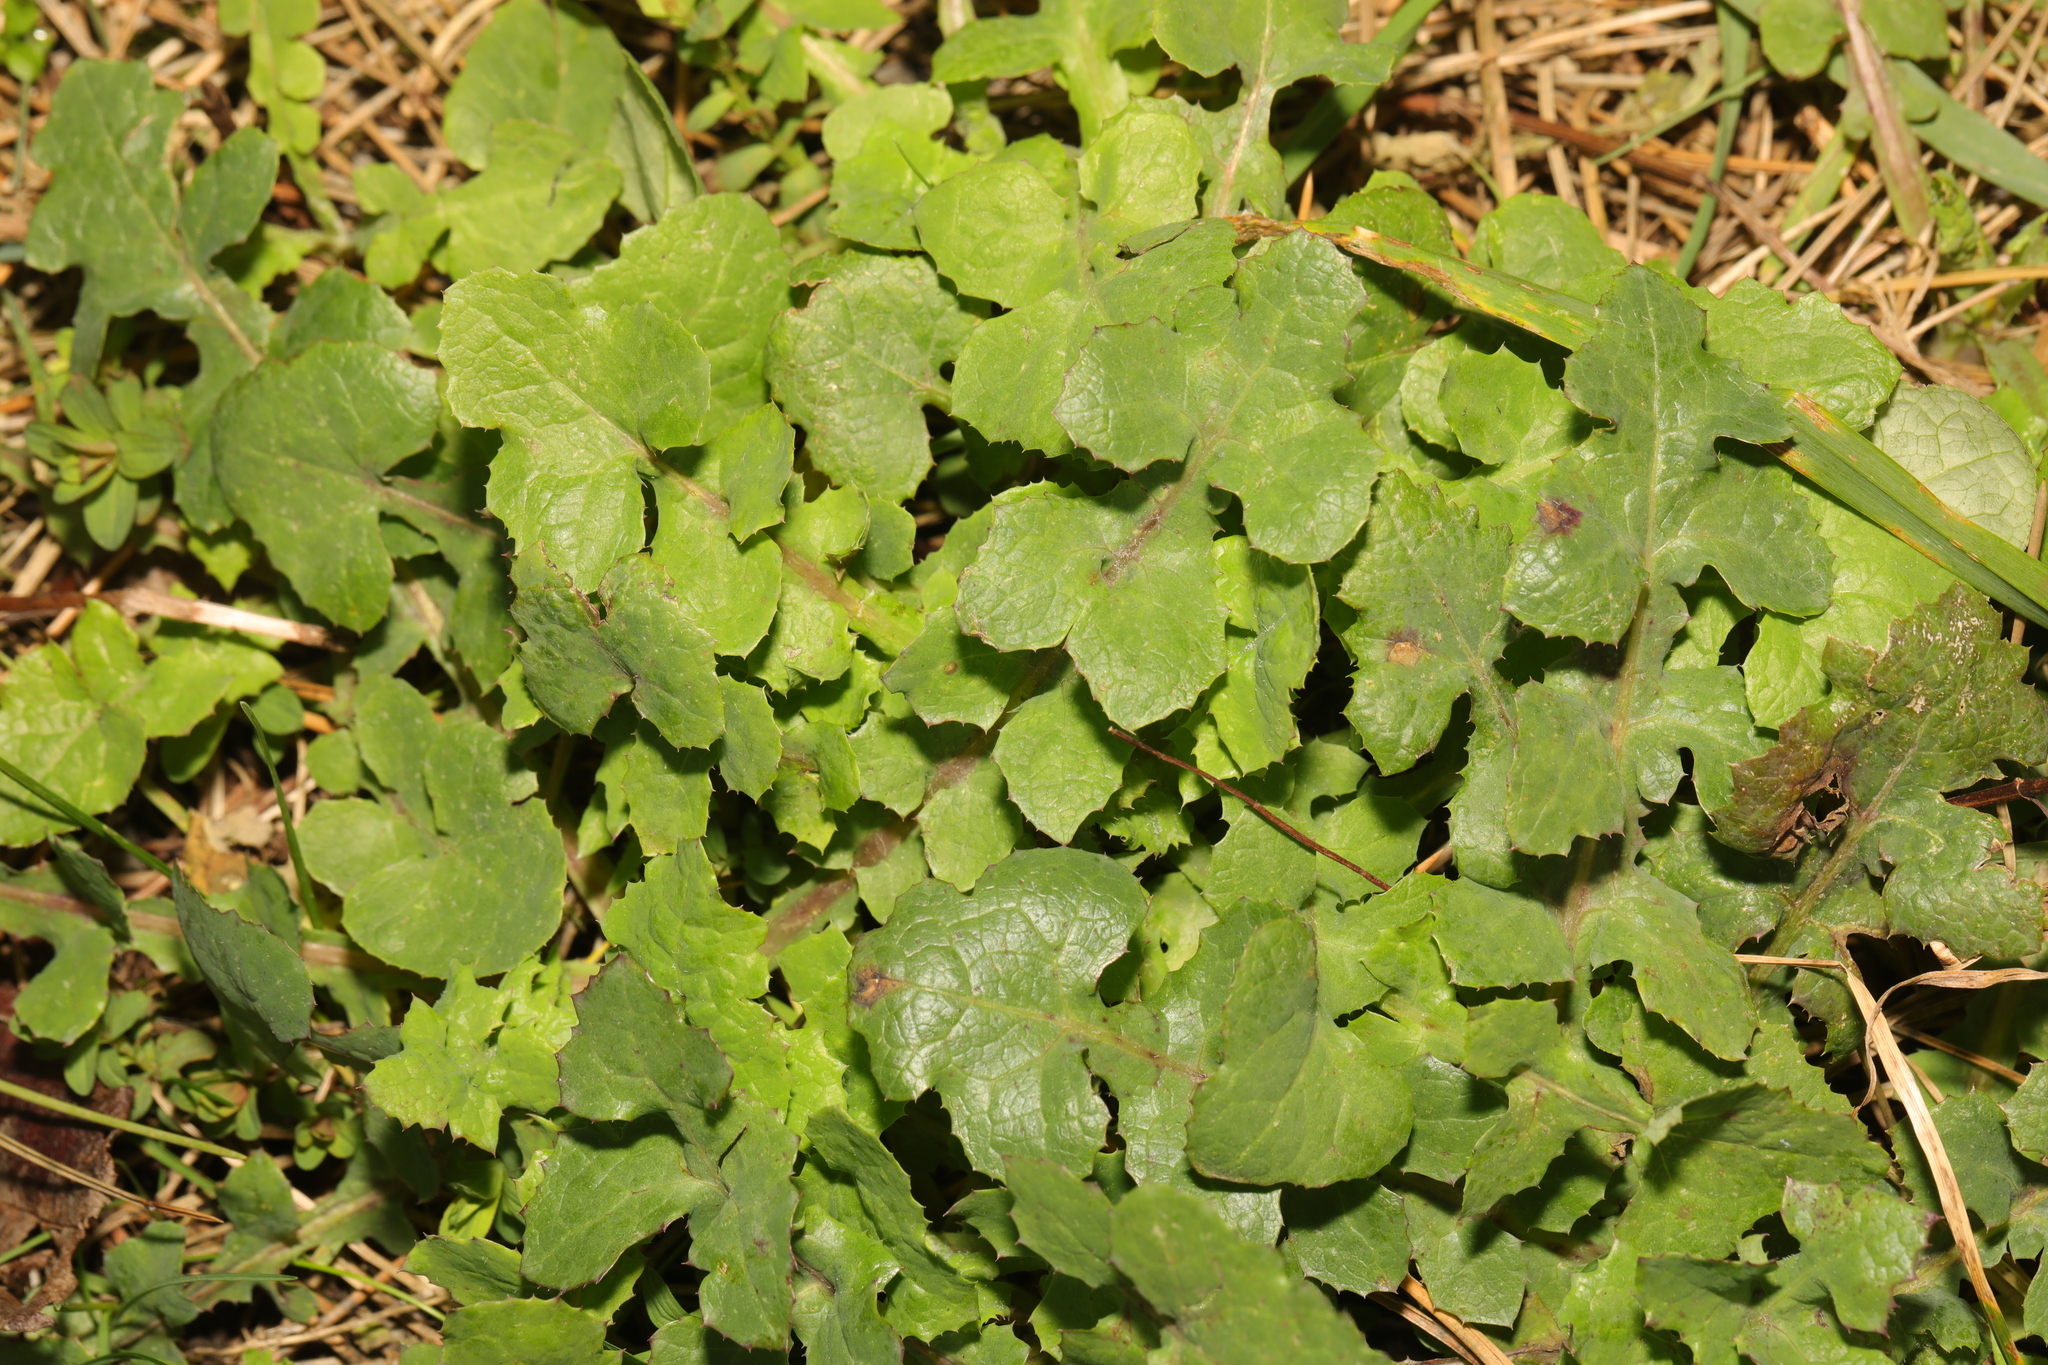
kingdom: Plantae
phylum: Tracheophyta
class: Magnoliopsida
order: Asterales
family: Asteraceae
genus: Sonchus
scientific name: Sonchus oleraceus
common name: Common sowthistle
